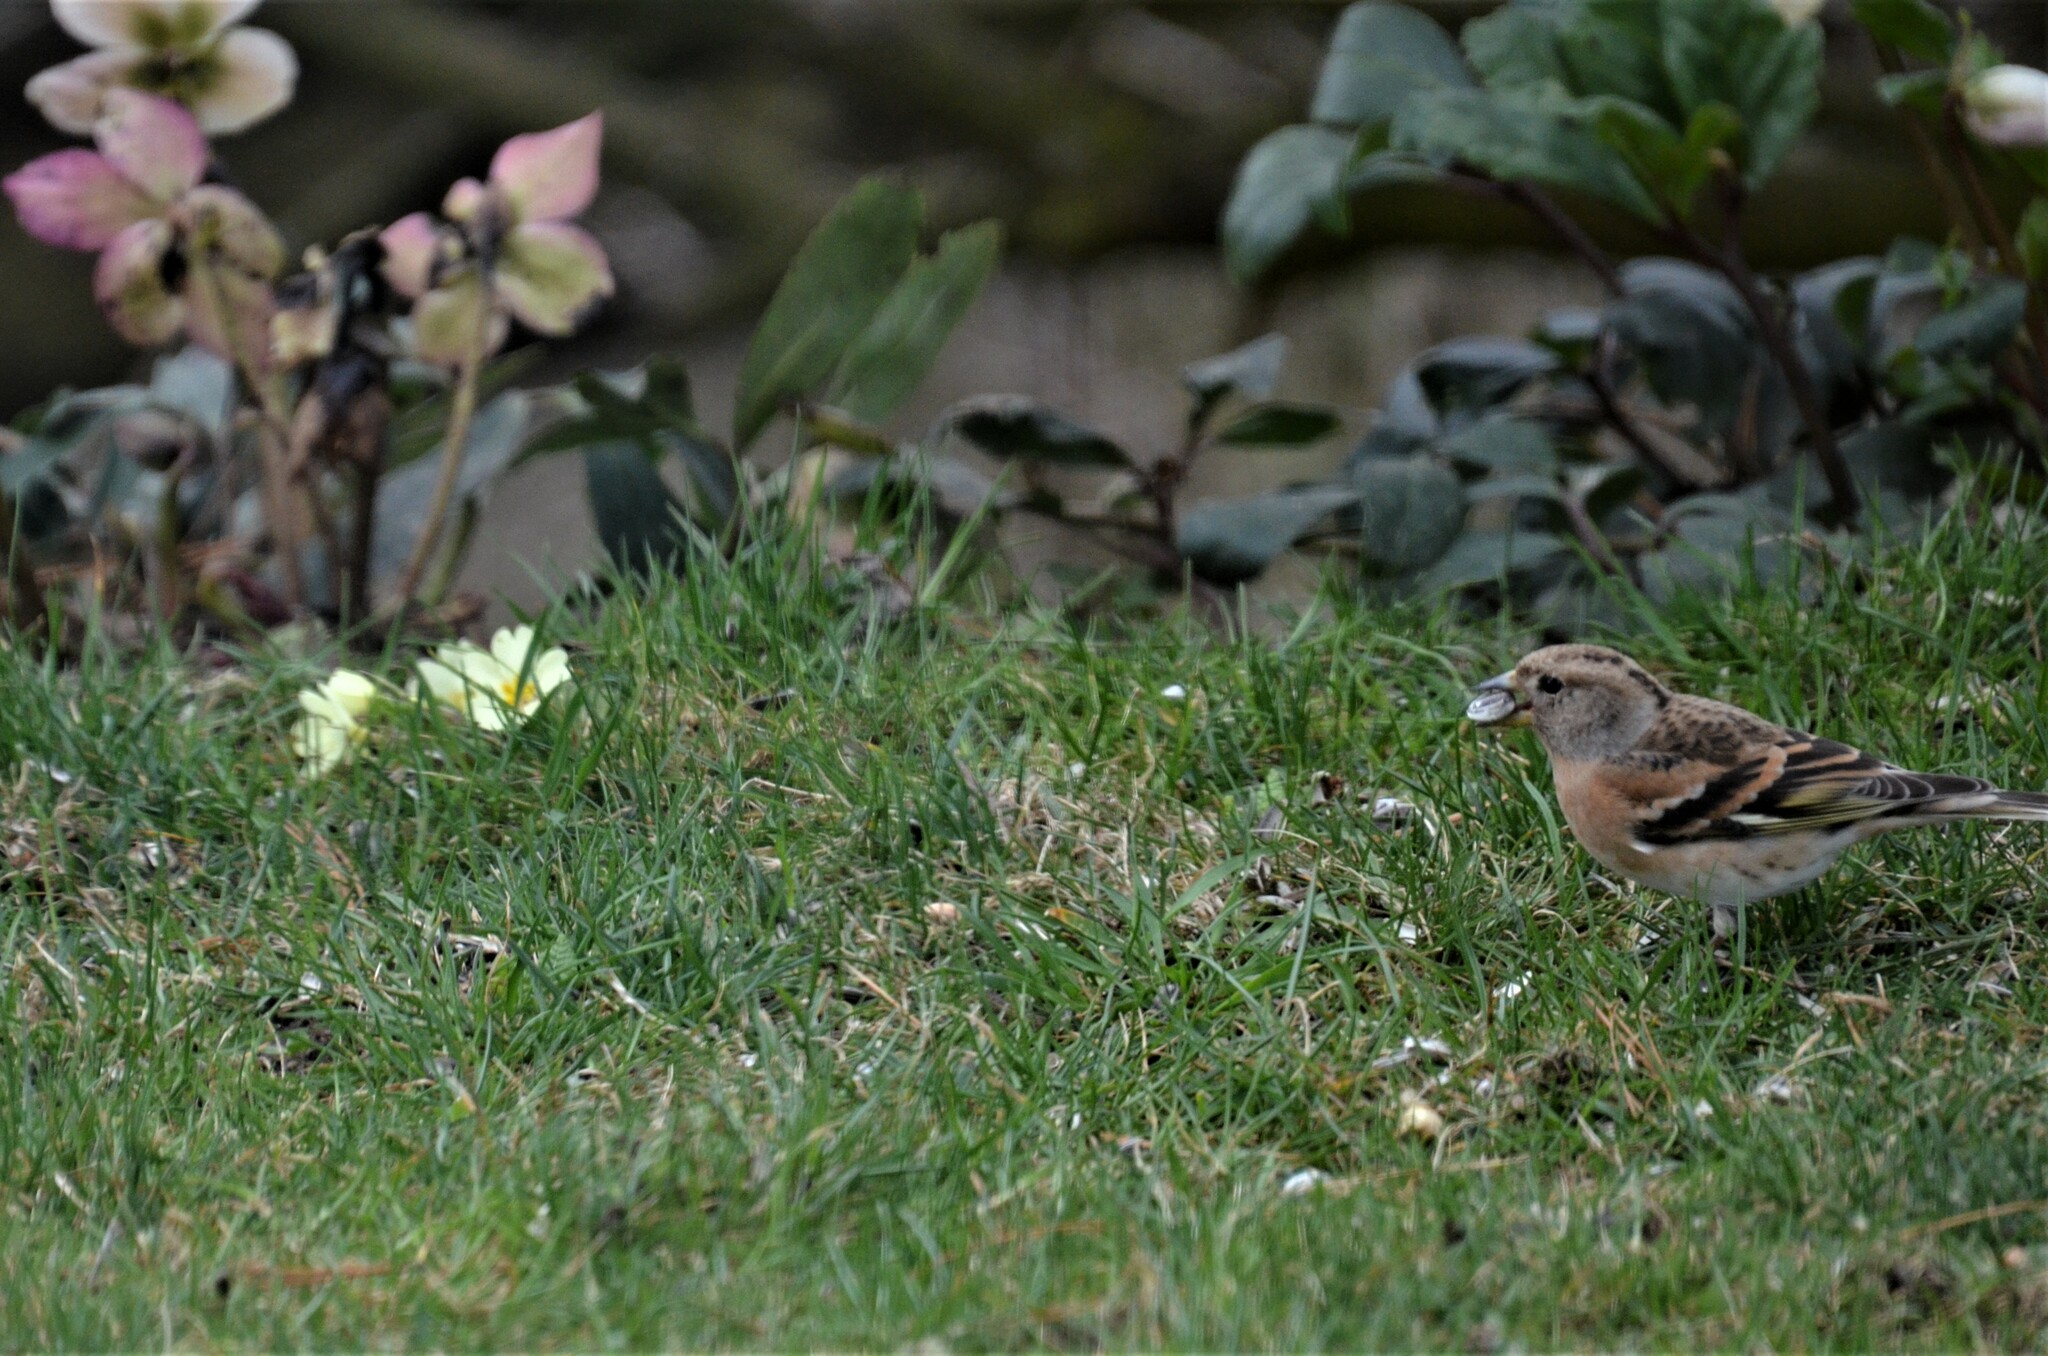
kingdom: Animalia
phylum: Chordata
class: Aves
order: Passeriformes
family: Fringillidae
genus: Fringilla
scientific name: Fringilla montifringilla
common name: Brambling
